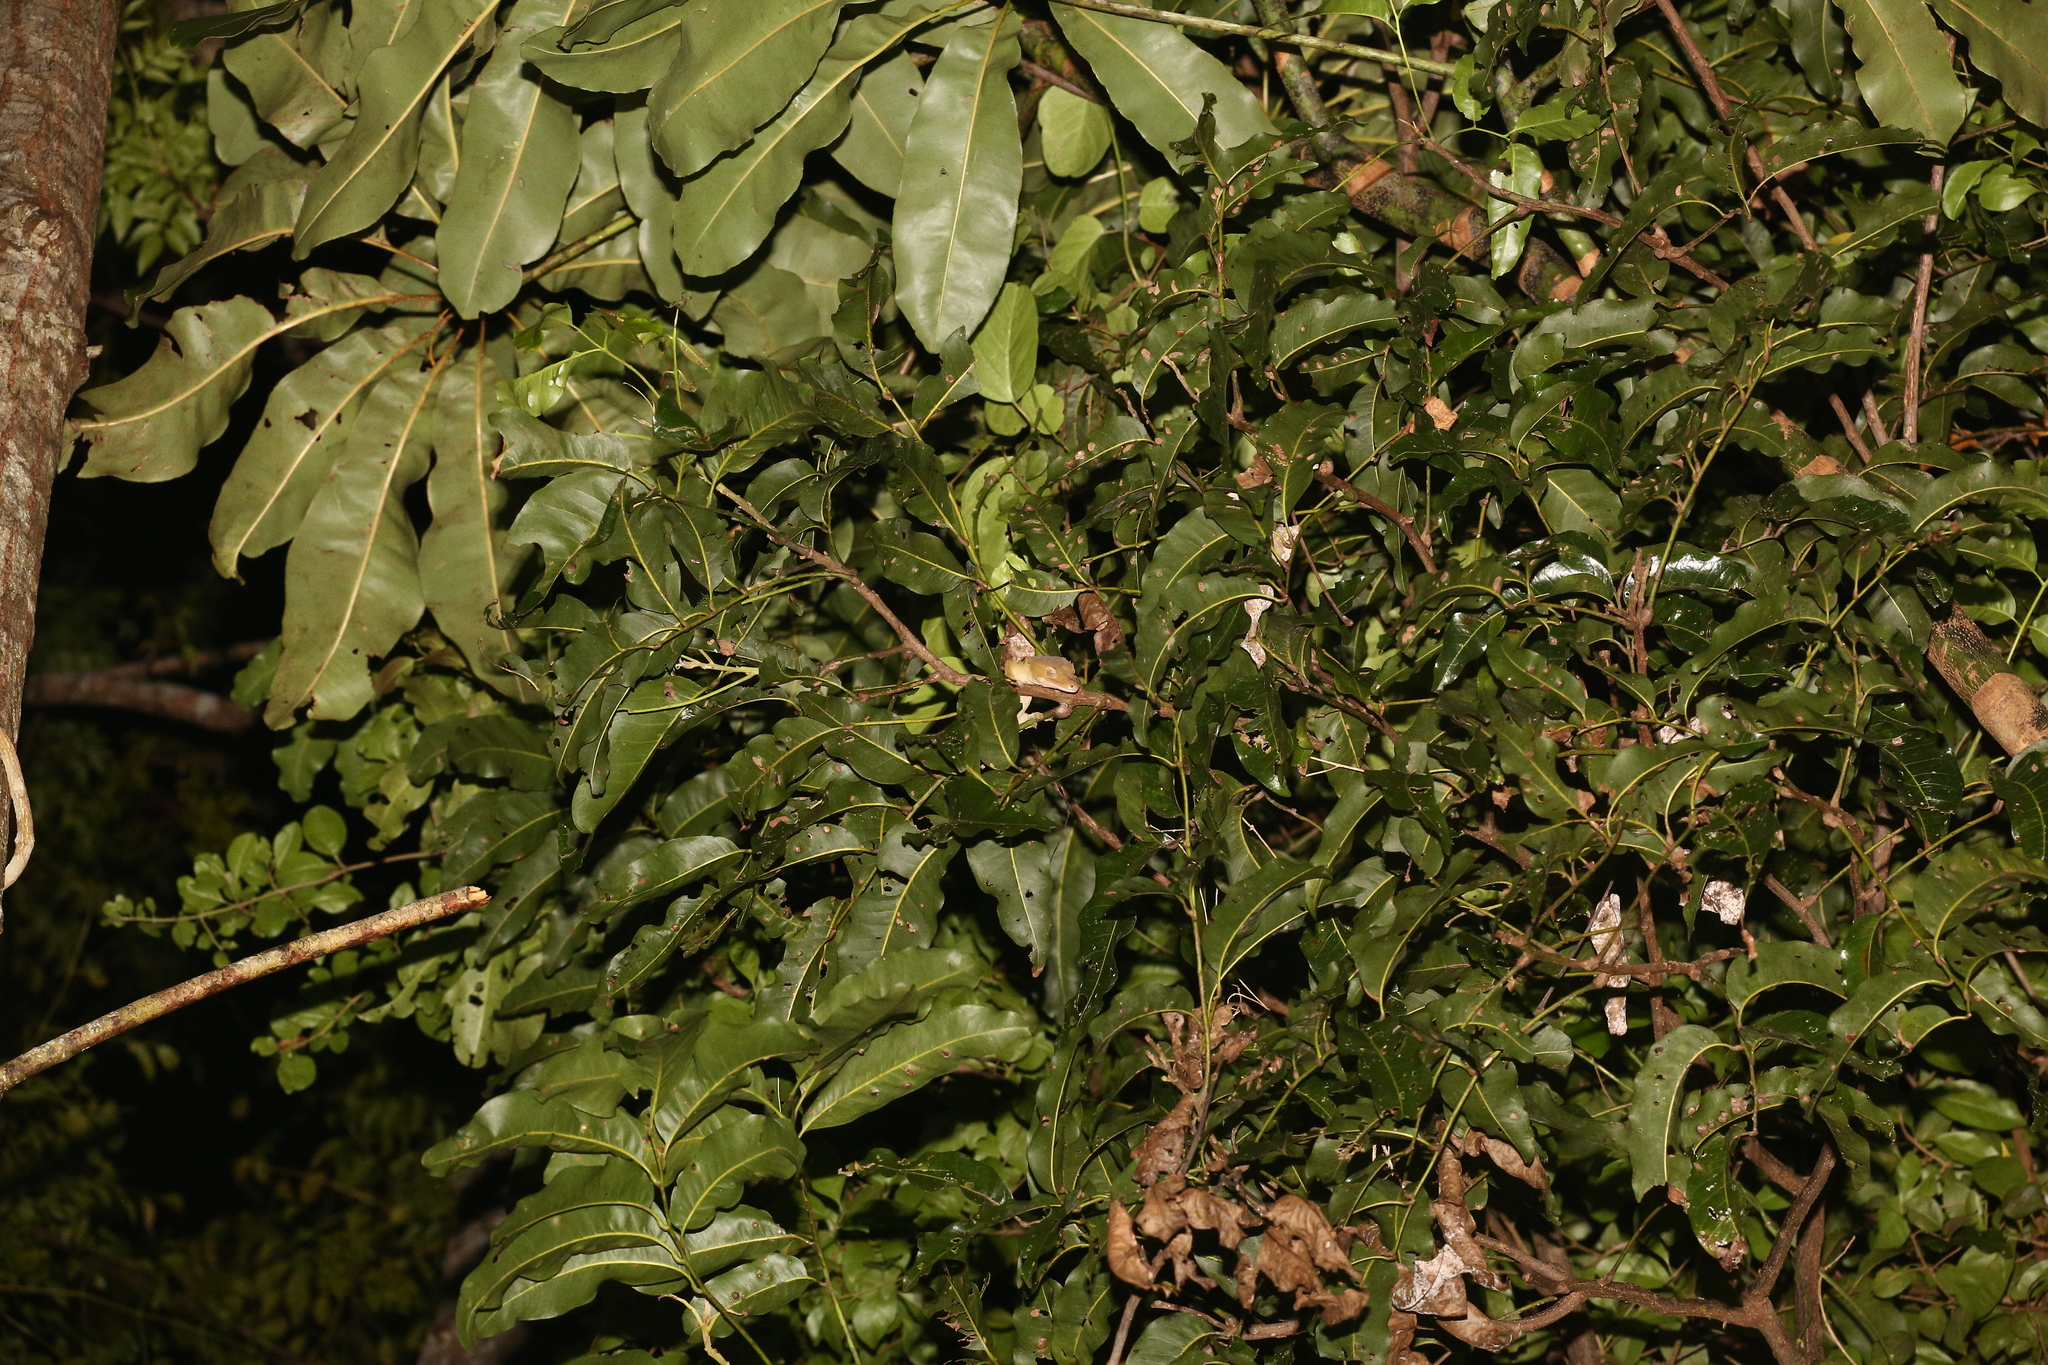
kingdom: Animalia
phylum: Chordata
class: Squamata
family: Diplodactylidae
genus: Correlophus
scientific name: Correlophus ciliatus
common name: Crested gecko
